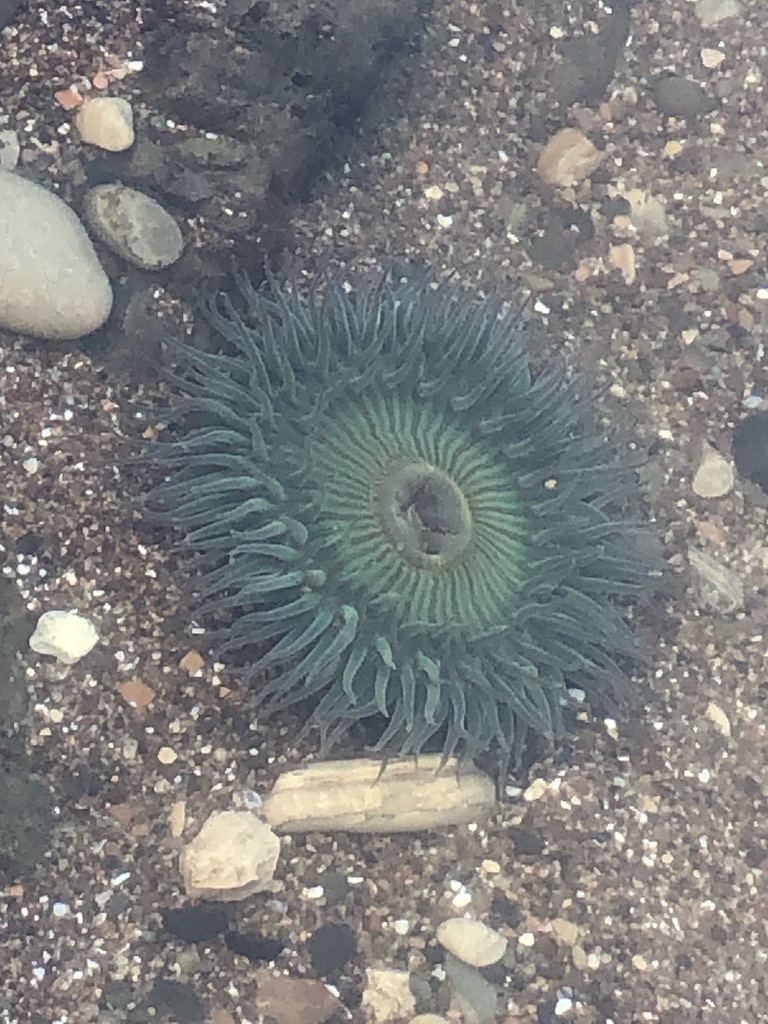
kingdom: Animalia
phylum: Cnidaria
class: Anthozoa
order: Actiniaria
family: Actiniidae
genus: Anthopleura
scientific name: Anthopleura sola
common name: Sun anemone
